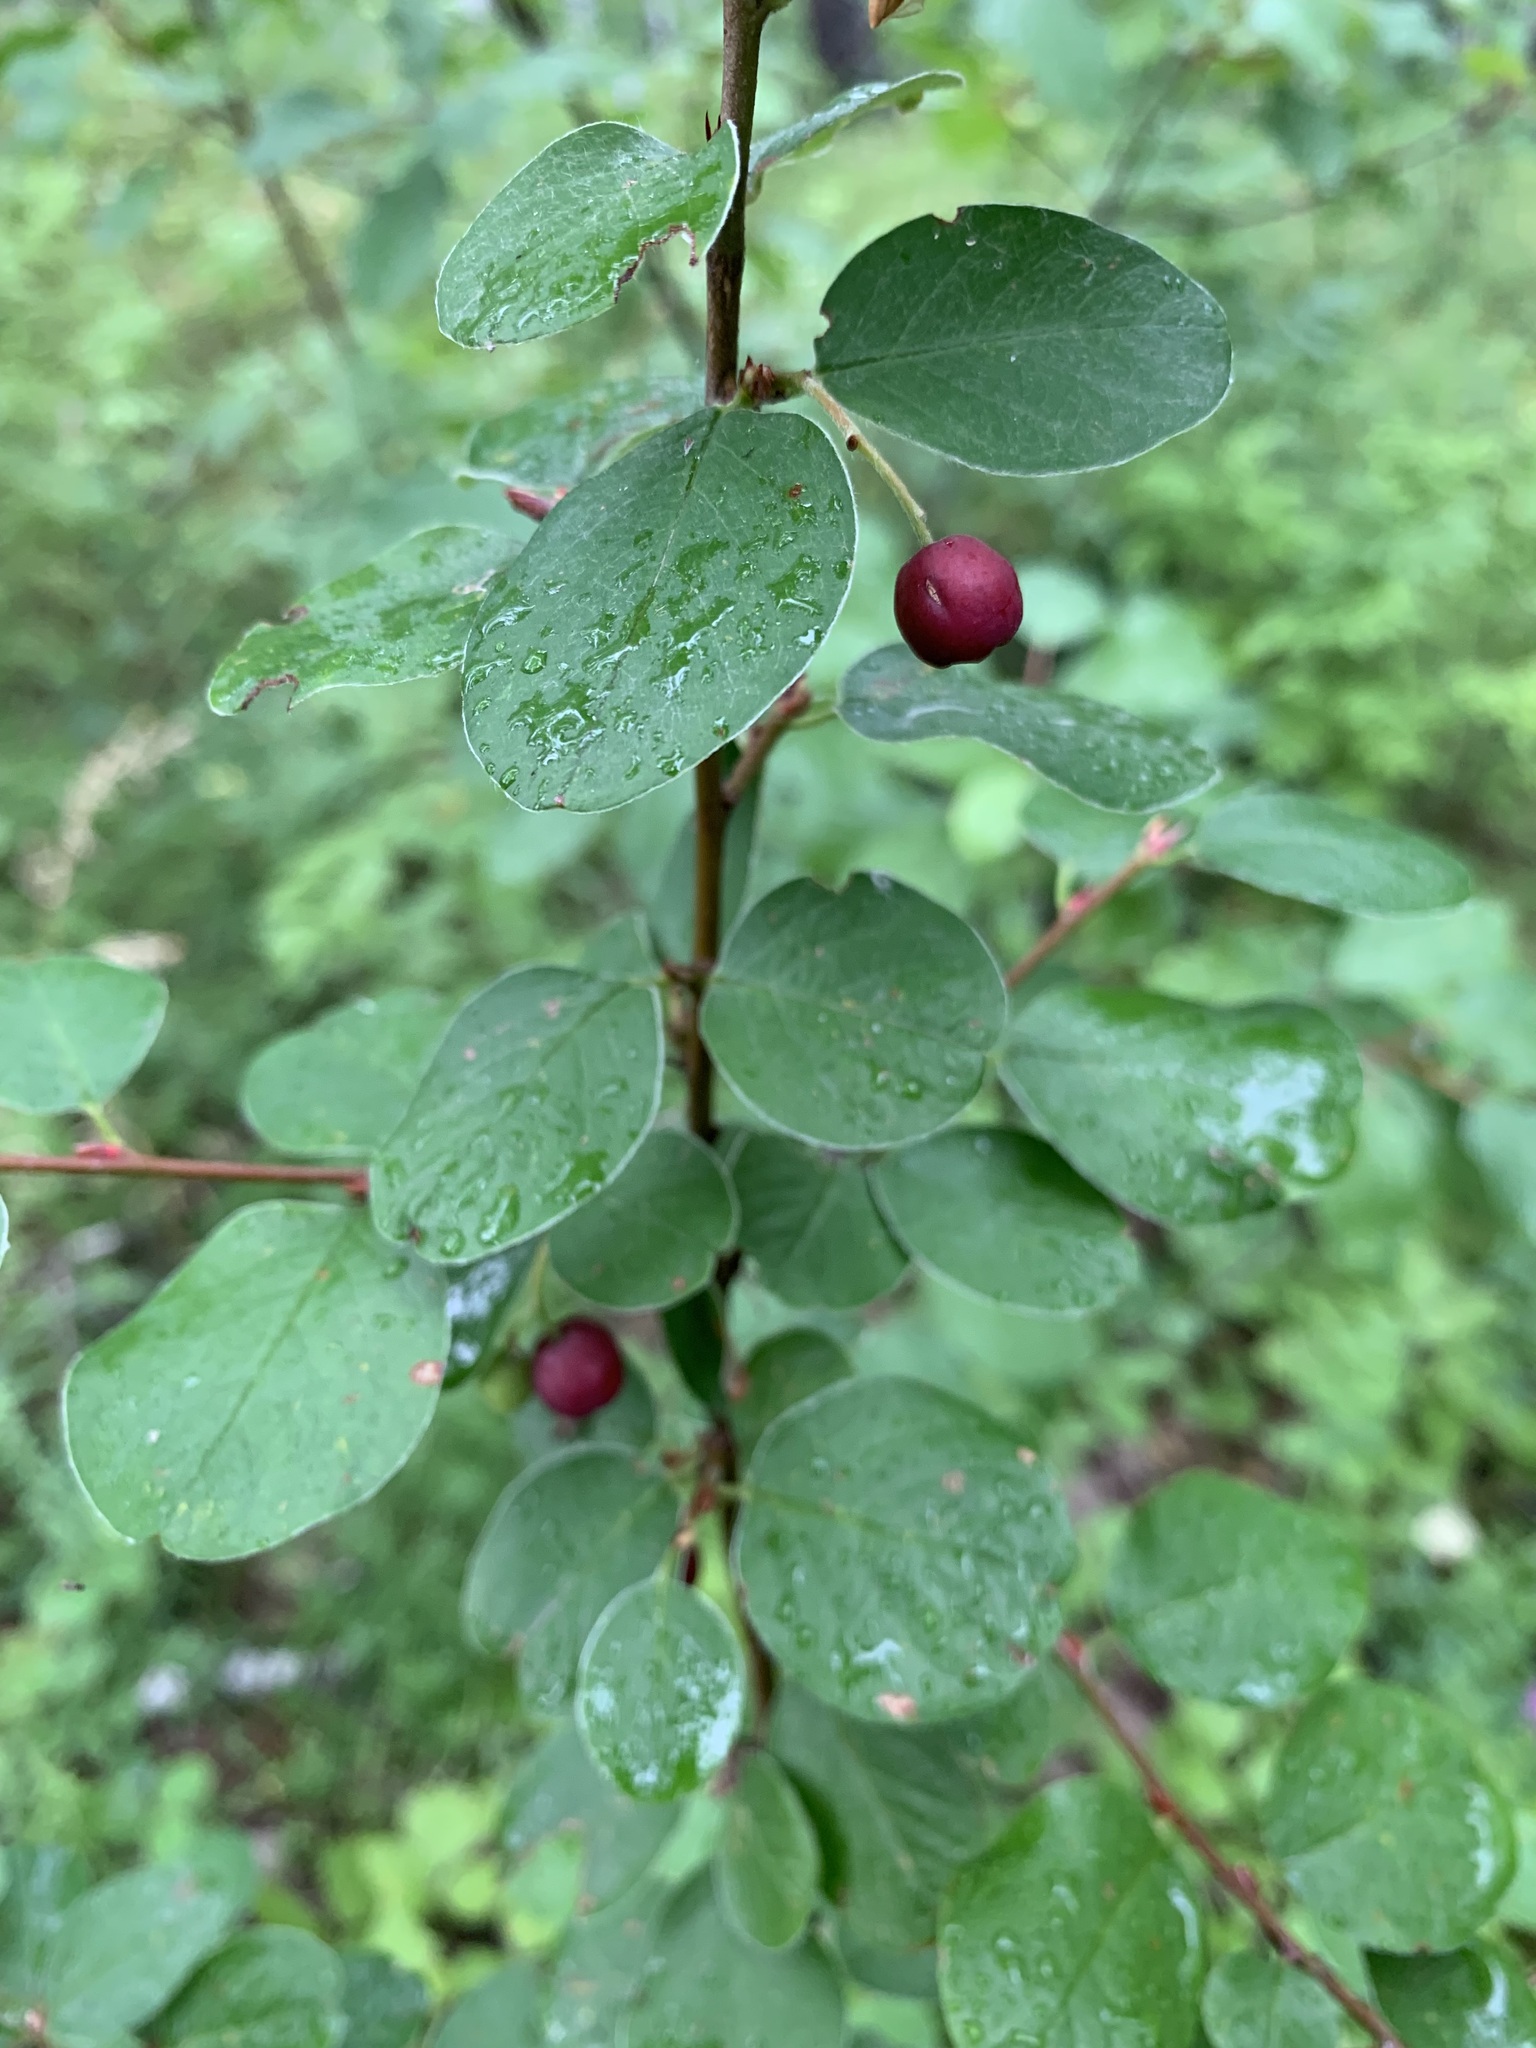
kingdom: Plantae
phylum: Tracheophyta
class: Magnoliopsida
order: Rosales
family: Rosaceae
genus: Cotoneaster
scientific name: Cotoneaster melanocarpus
